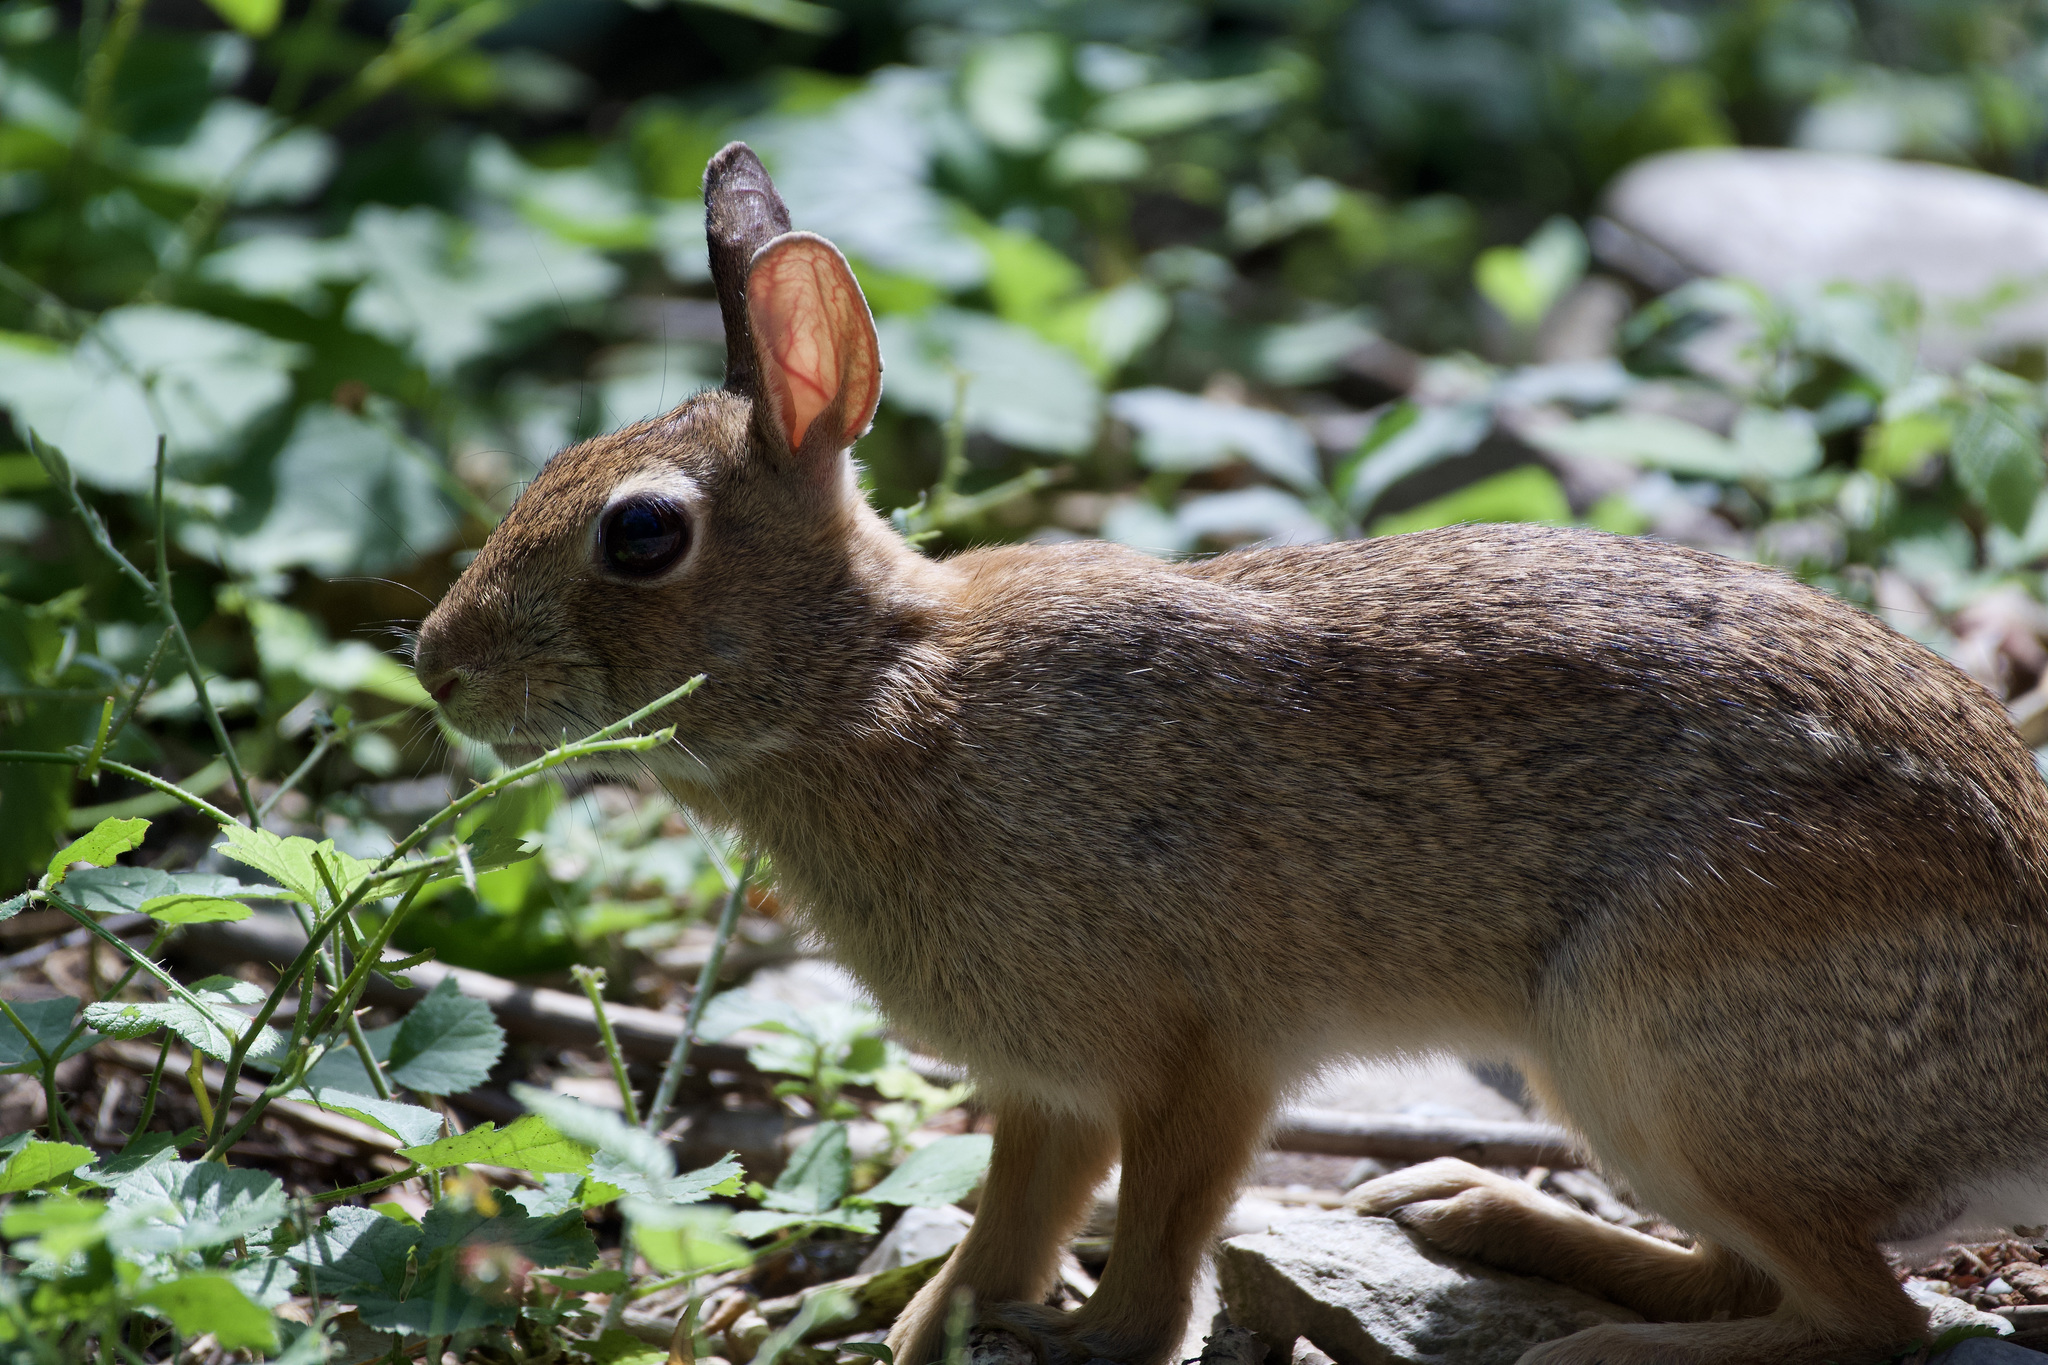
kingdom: Animalia
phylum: Chordata
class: Mammalia
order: Lagomorpha
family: Leporidae
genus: Sylvilagus
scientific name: Sylvilagus floridanus
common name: Eastern cottontail
